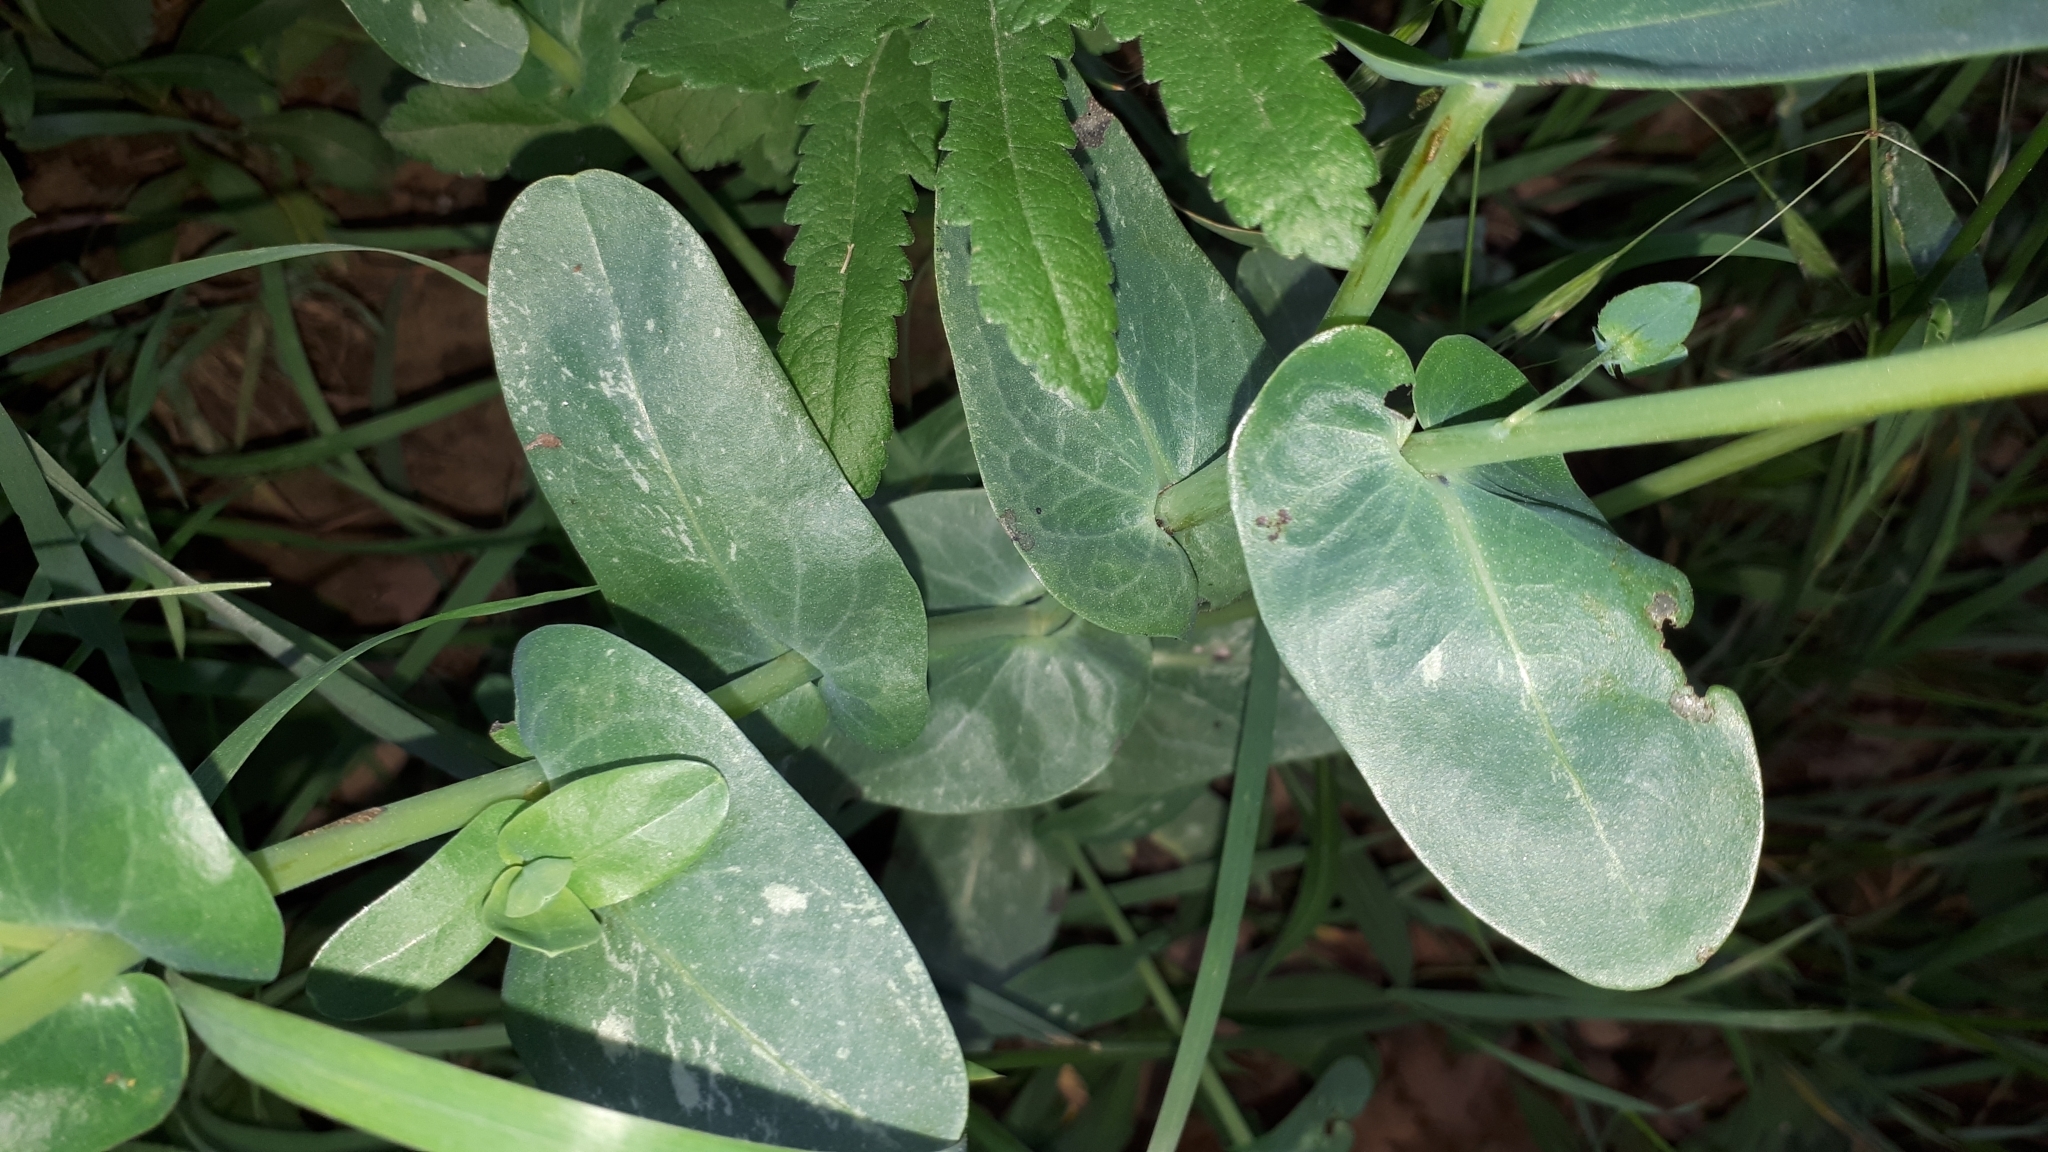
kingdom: Plantae
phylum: Tracheophyta
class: Magnoliopsida
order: Boraginales
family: Boraginaceae
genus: Cerinthe
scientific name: Cerinthe minor
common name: Lesser honeywort
